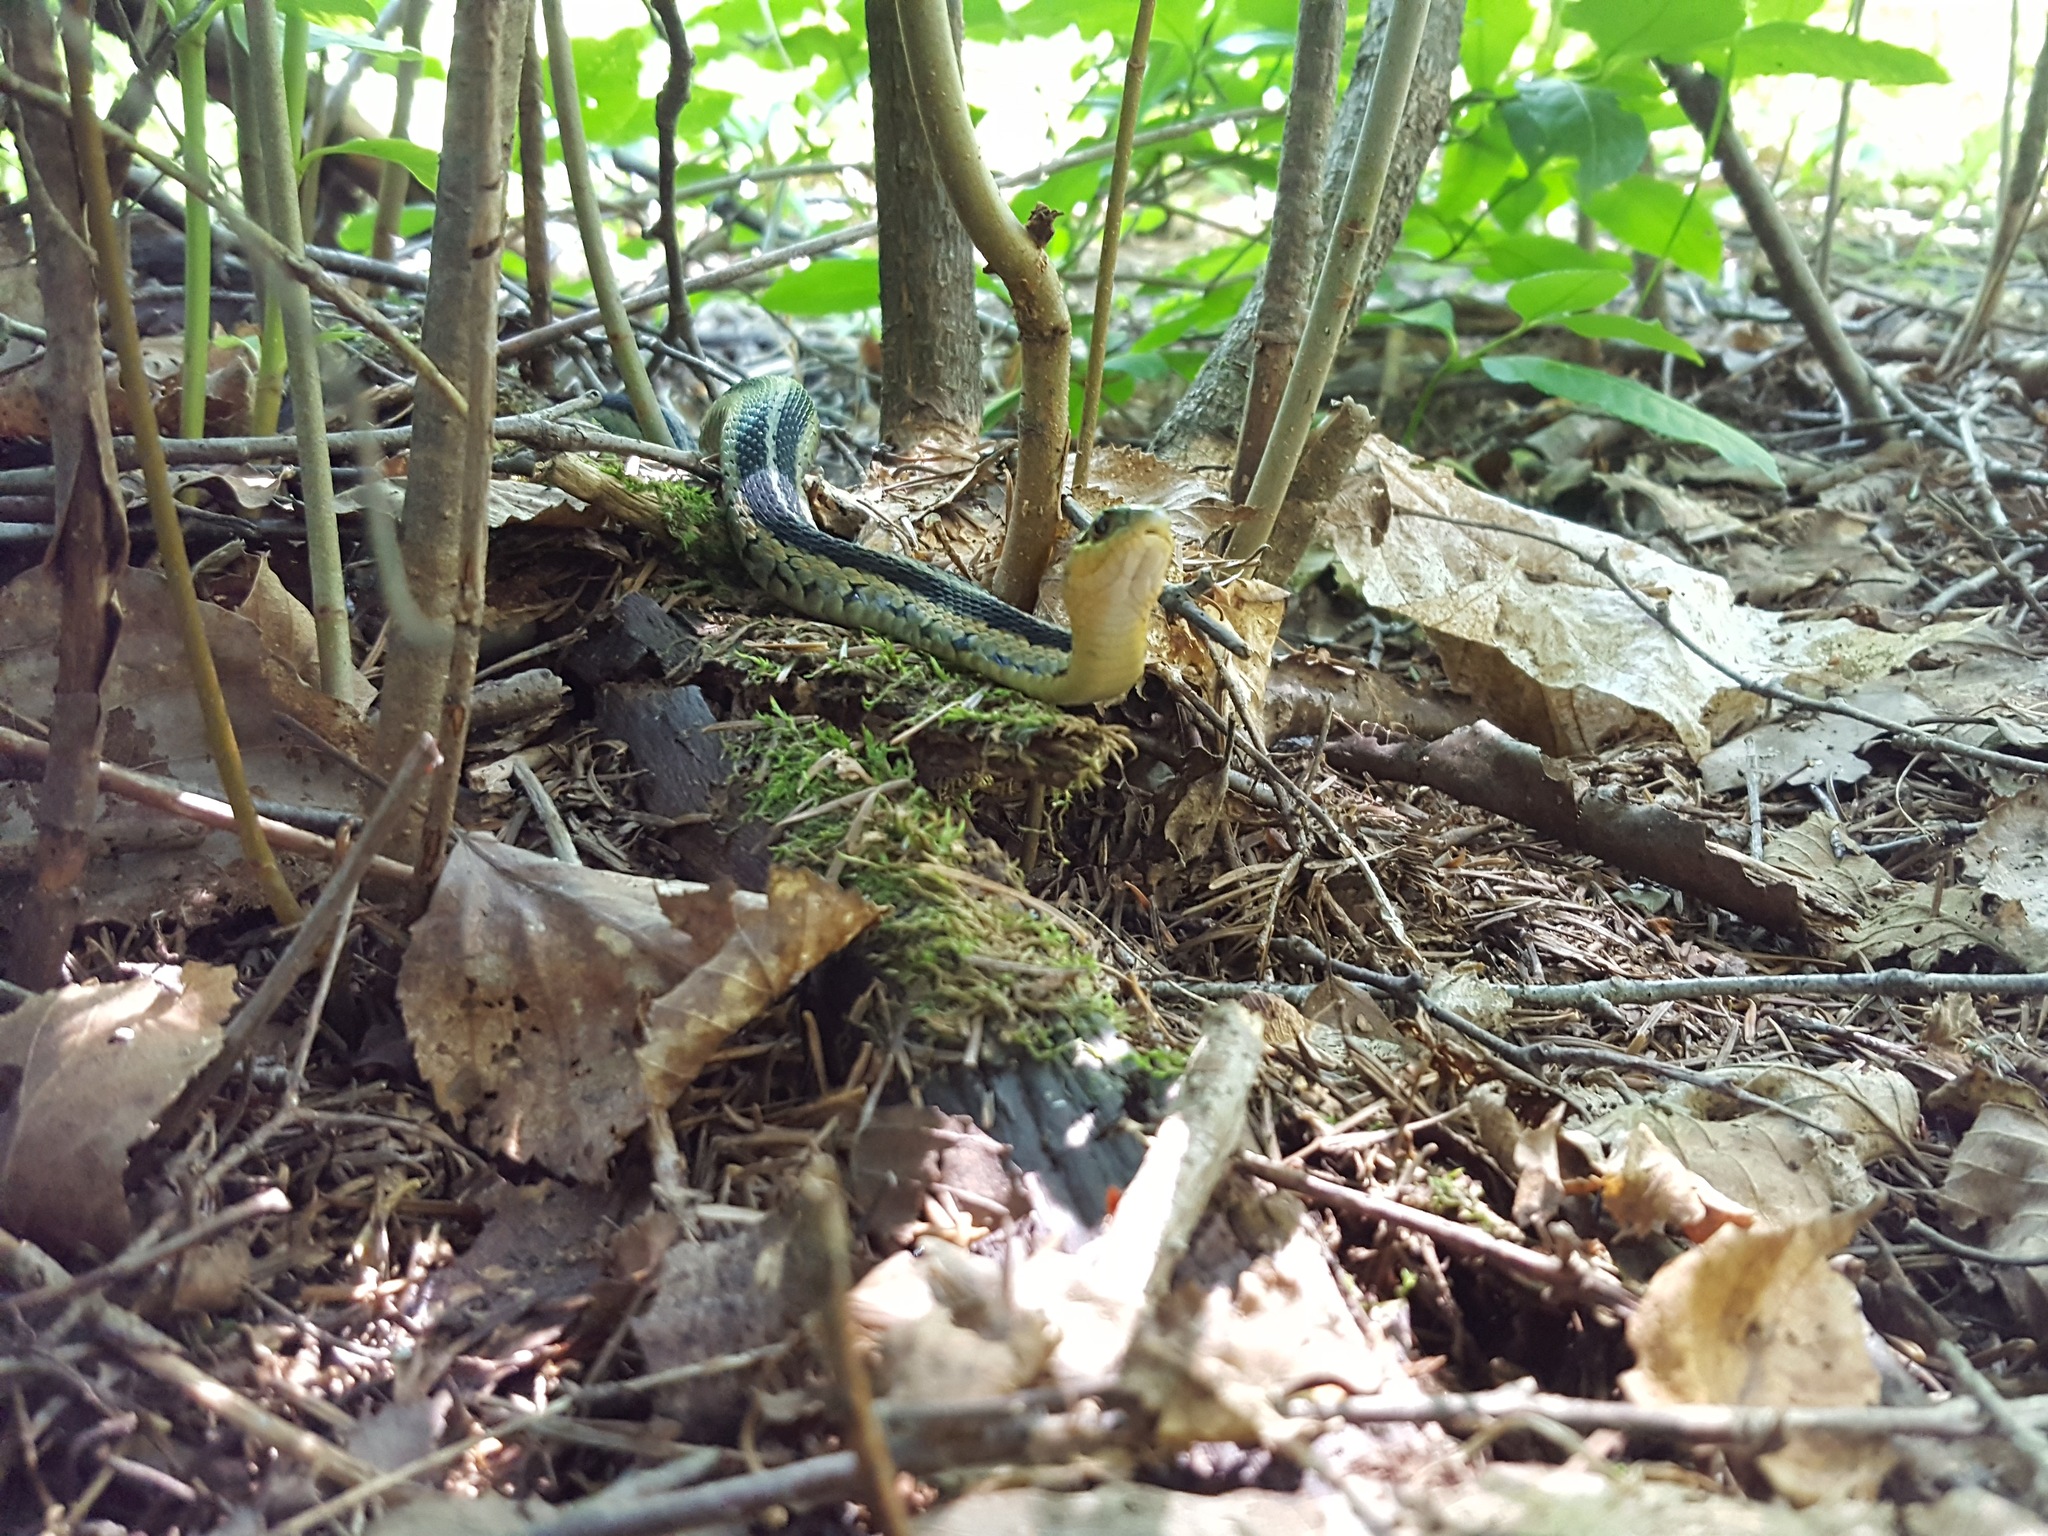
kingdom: Animalia
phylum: Chordata
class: Squamata
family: Colubridae
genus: Thamnophis
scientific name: Thamnophis sirtalis
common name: Common garter snake
